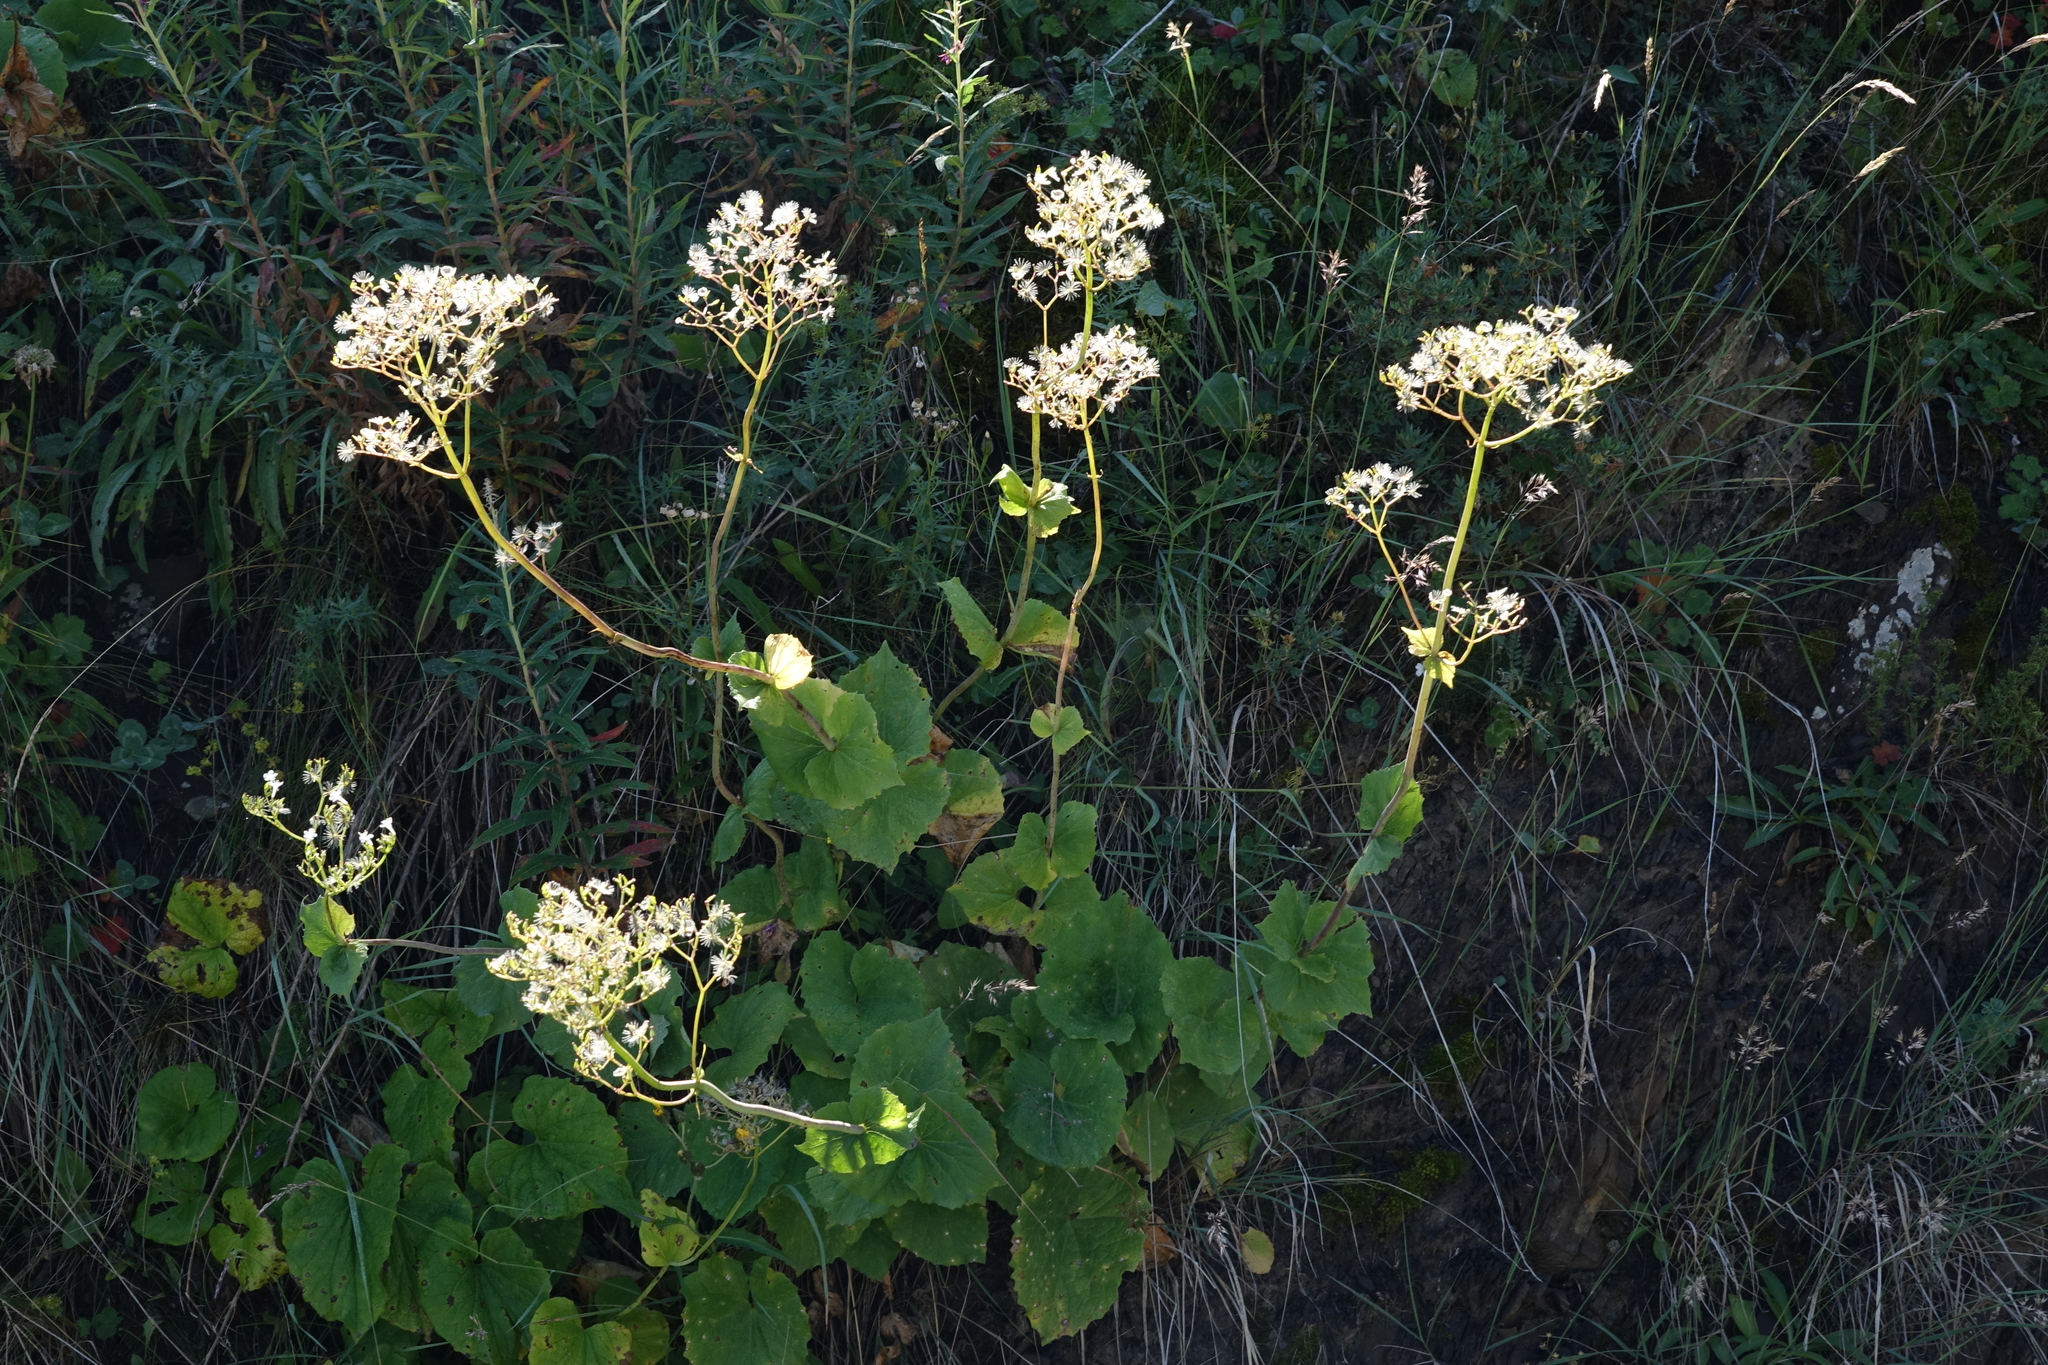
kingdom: Plantae
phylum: Tracheophyta
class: Magnoliopsida
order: Dipsacales
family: Caprifoliaceae
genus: Valeriana
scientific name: Valeriana alliariifolia
